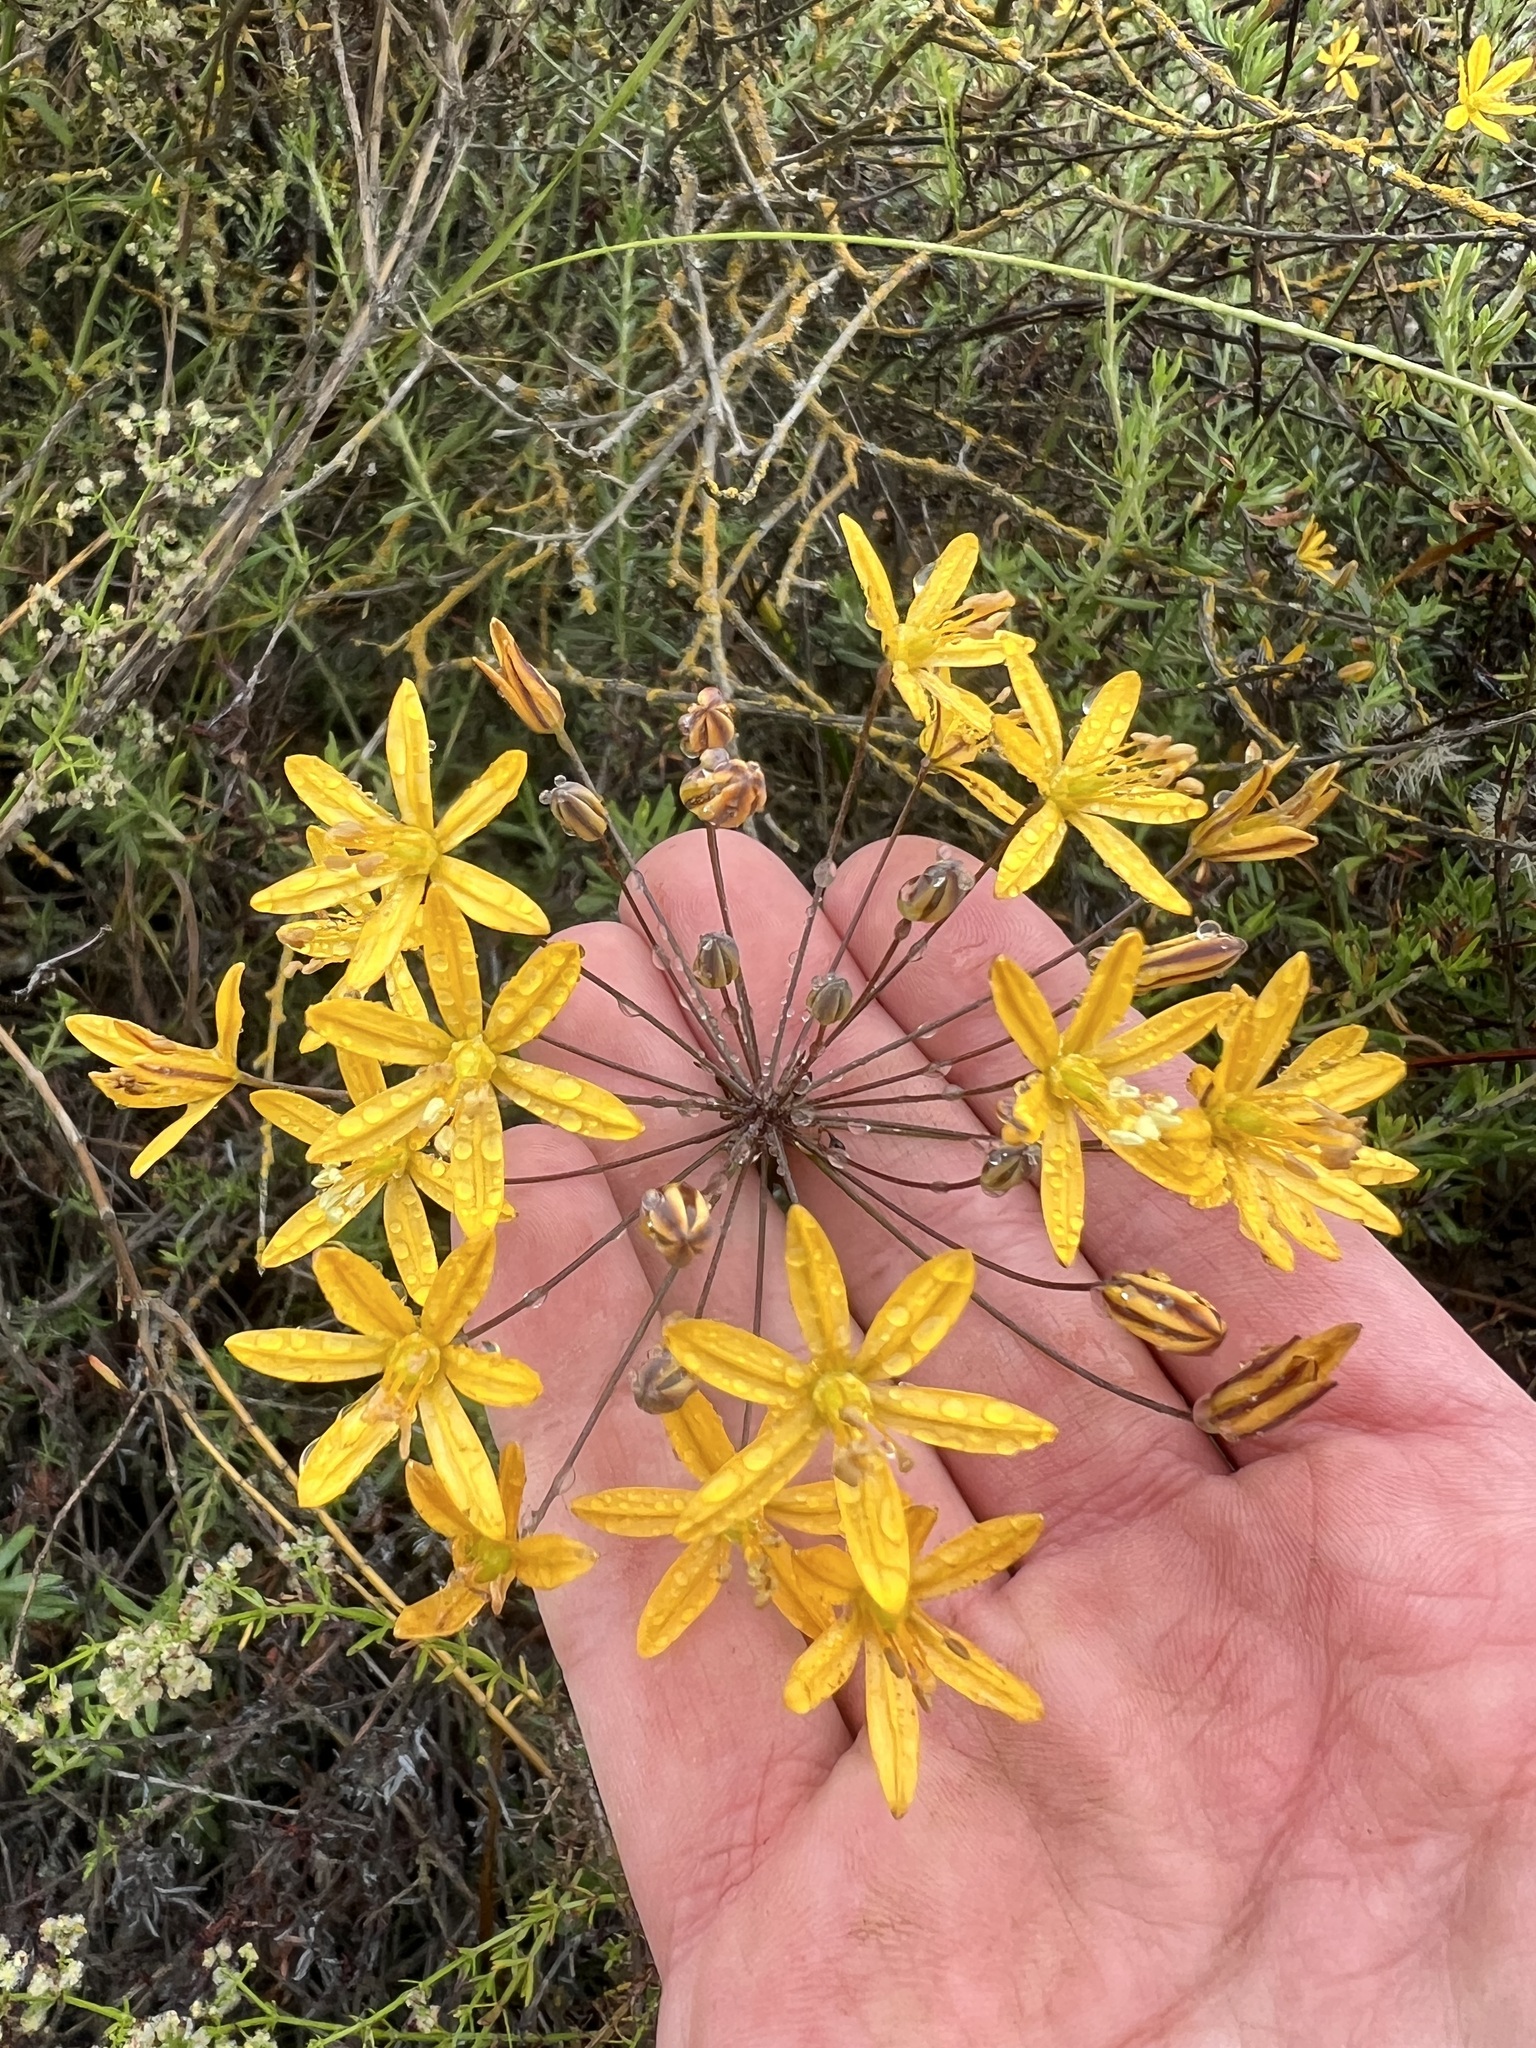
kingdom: Plantae
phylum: Tracheophyta
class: Liliopsida
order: Asparagales
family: Asparagaceae
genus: Bloomeria
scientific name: Bloomeria crocea
